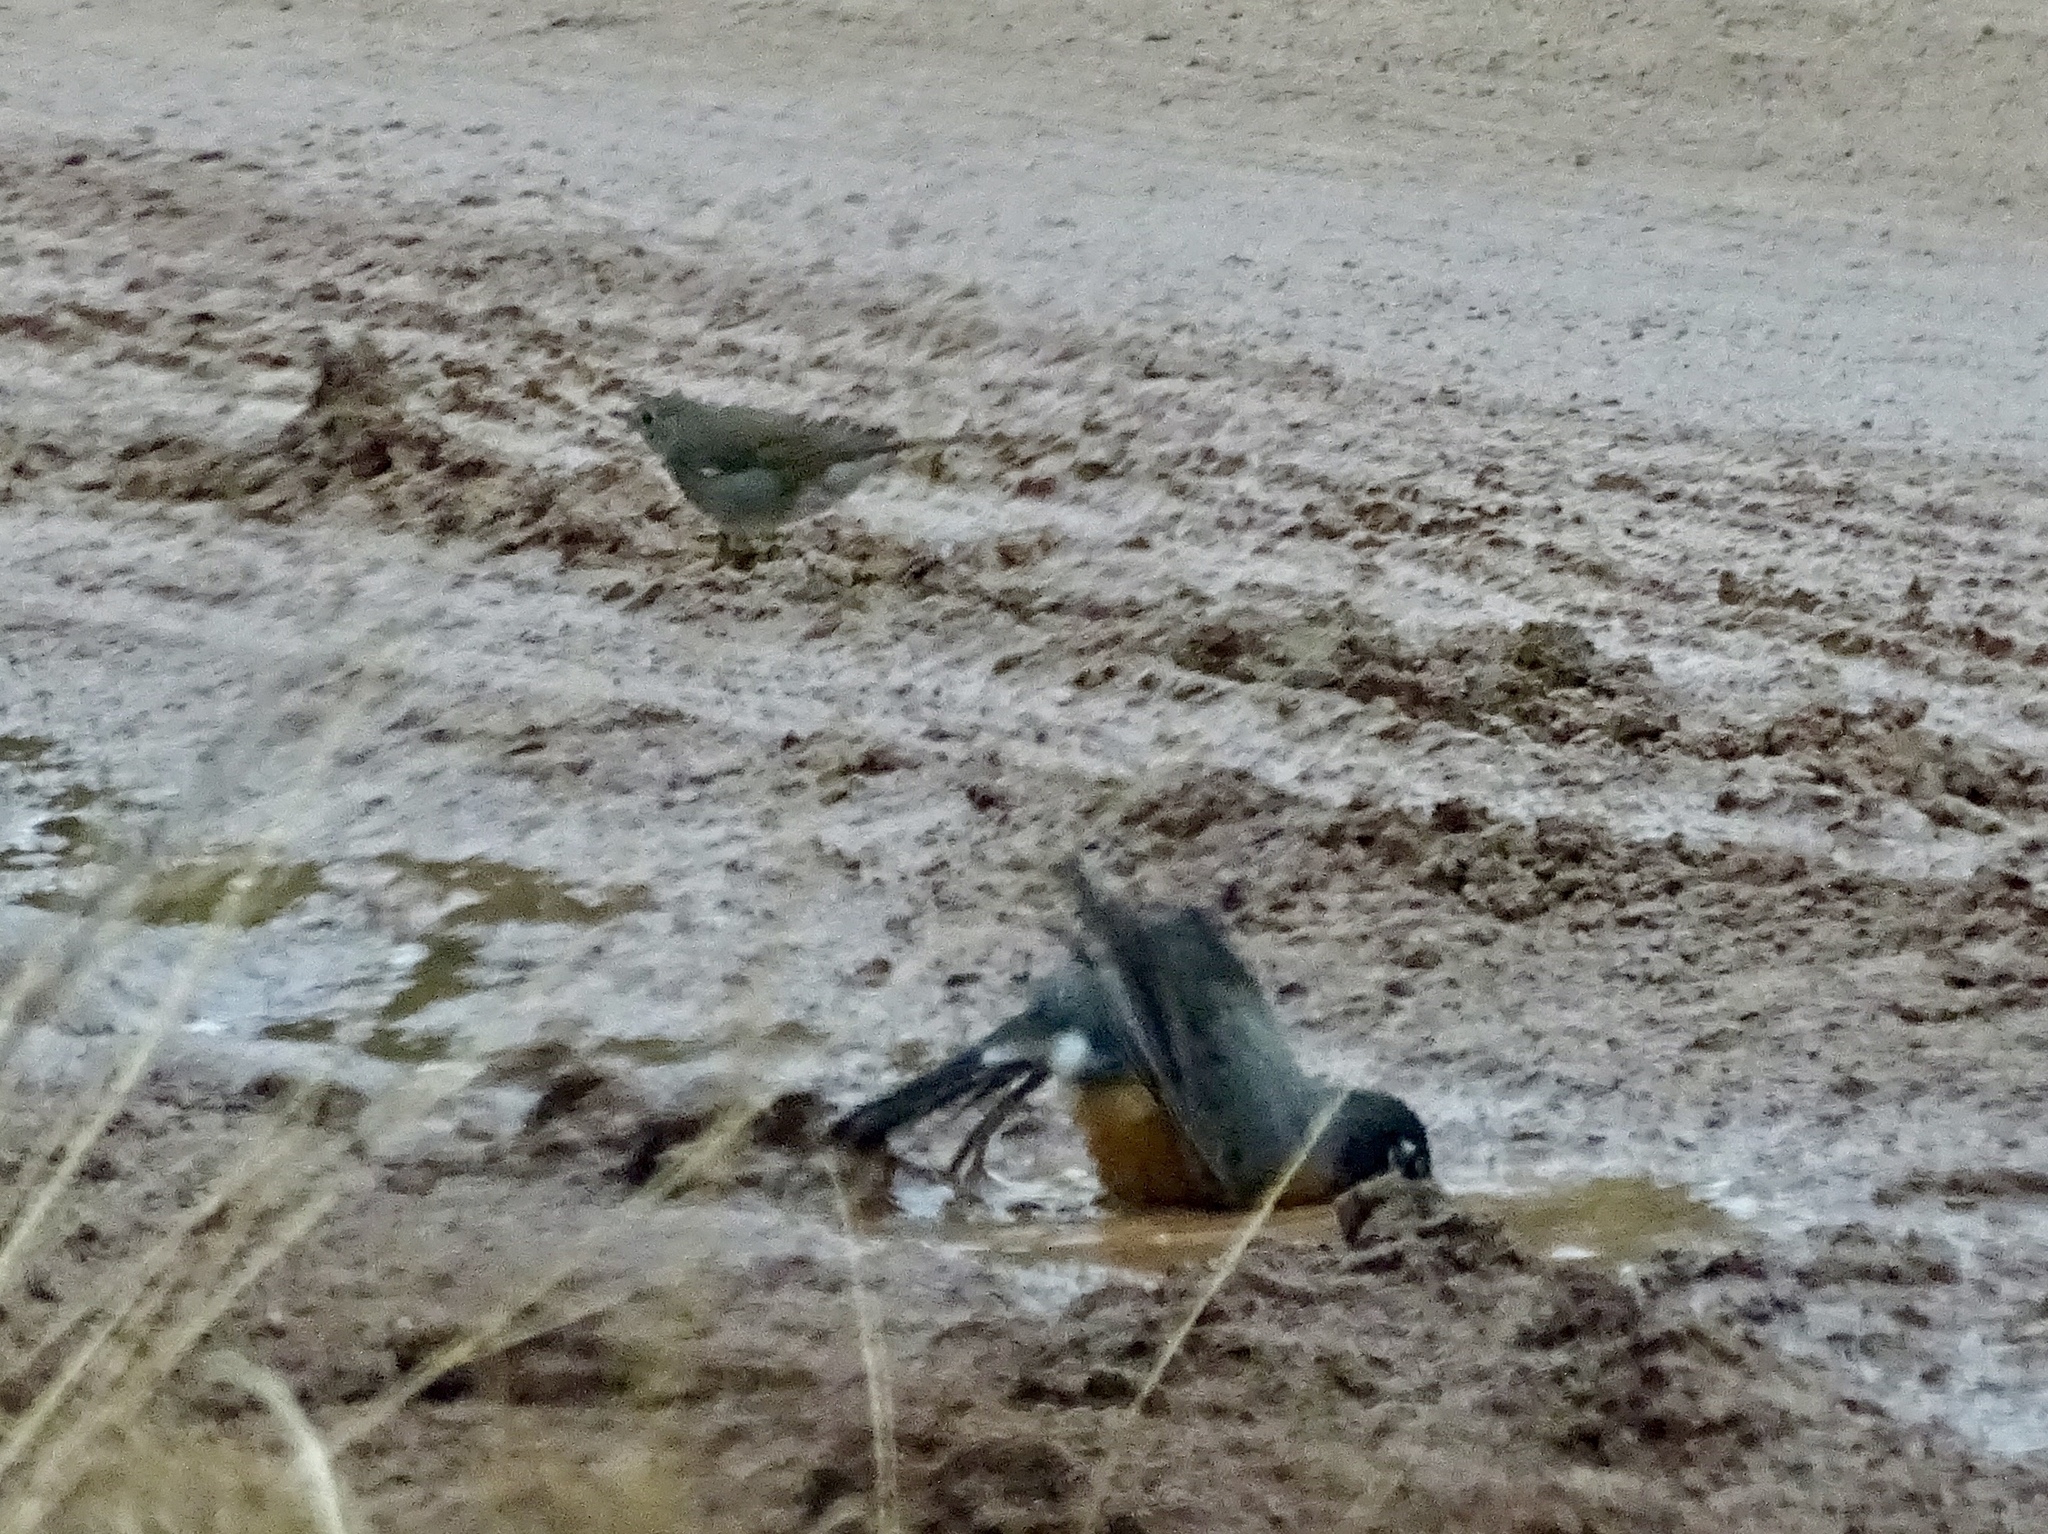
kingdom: Animalia
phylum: Chordata
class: Aves
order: Passeriformes
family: Turdidae
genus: Turdus
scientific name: Turdus migratorius
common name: American robin
